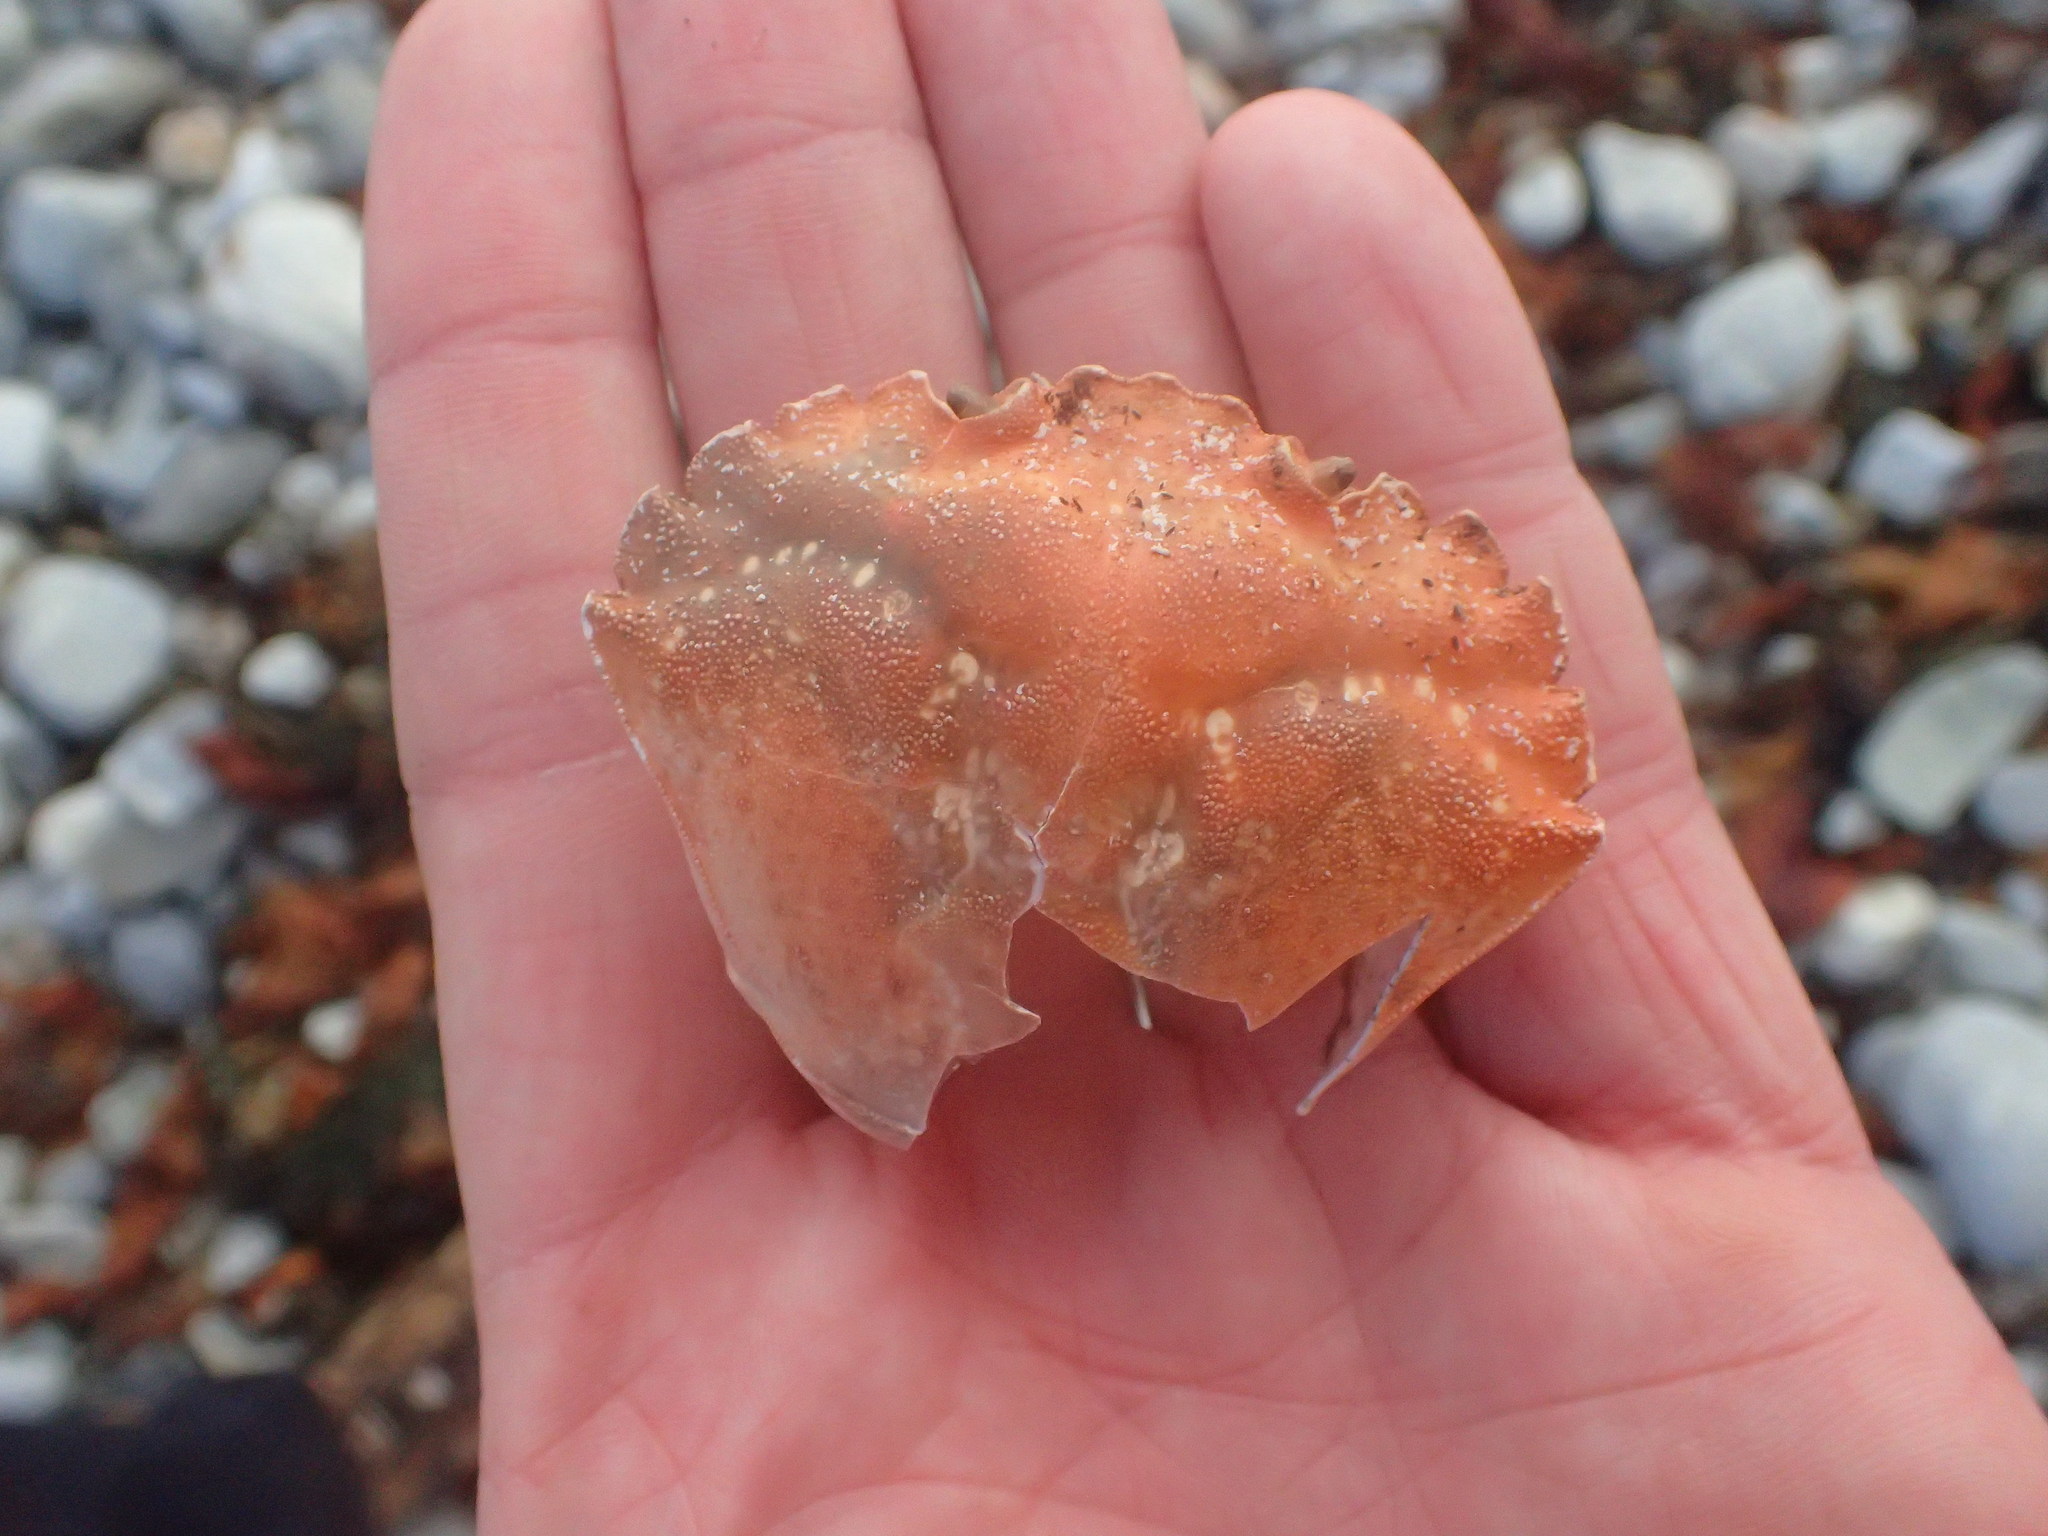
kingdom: Animalia
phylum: Arthropoda
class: Malacostraca
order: Decapoda
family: Carcinidae
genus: Carcinus
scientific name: Carcinus maenas
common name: European green crab
